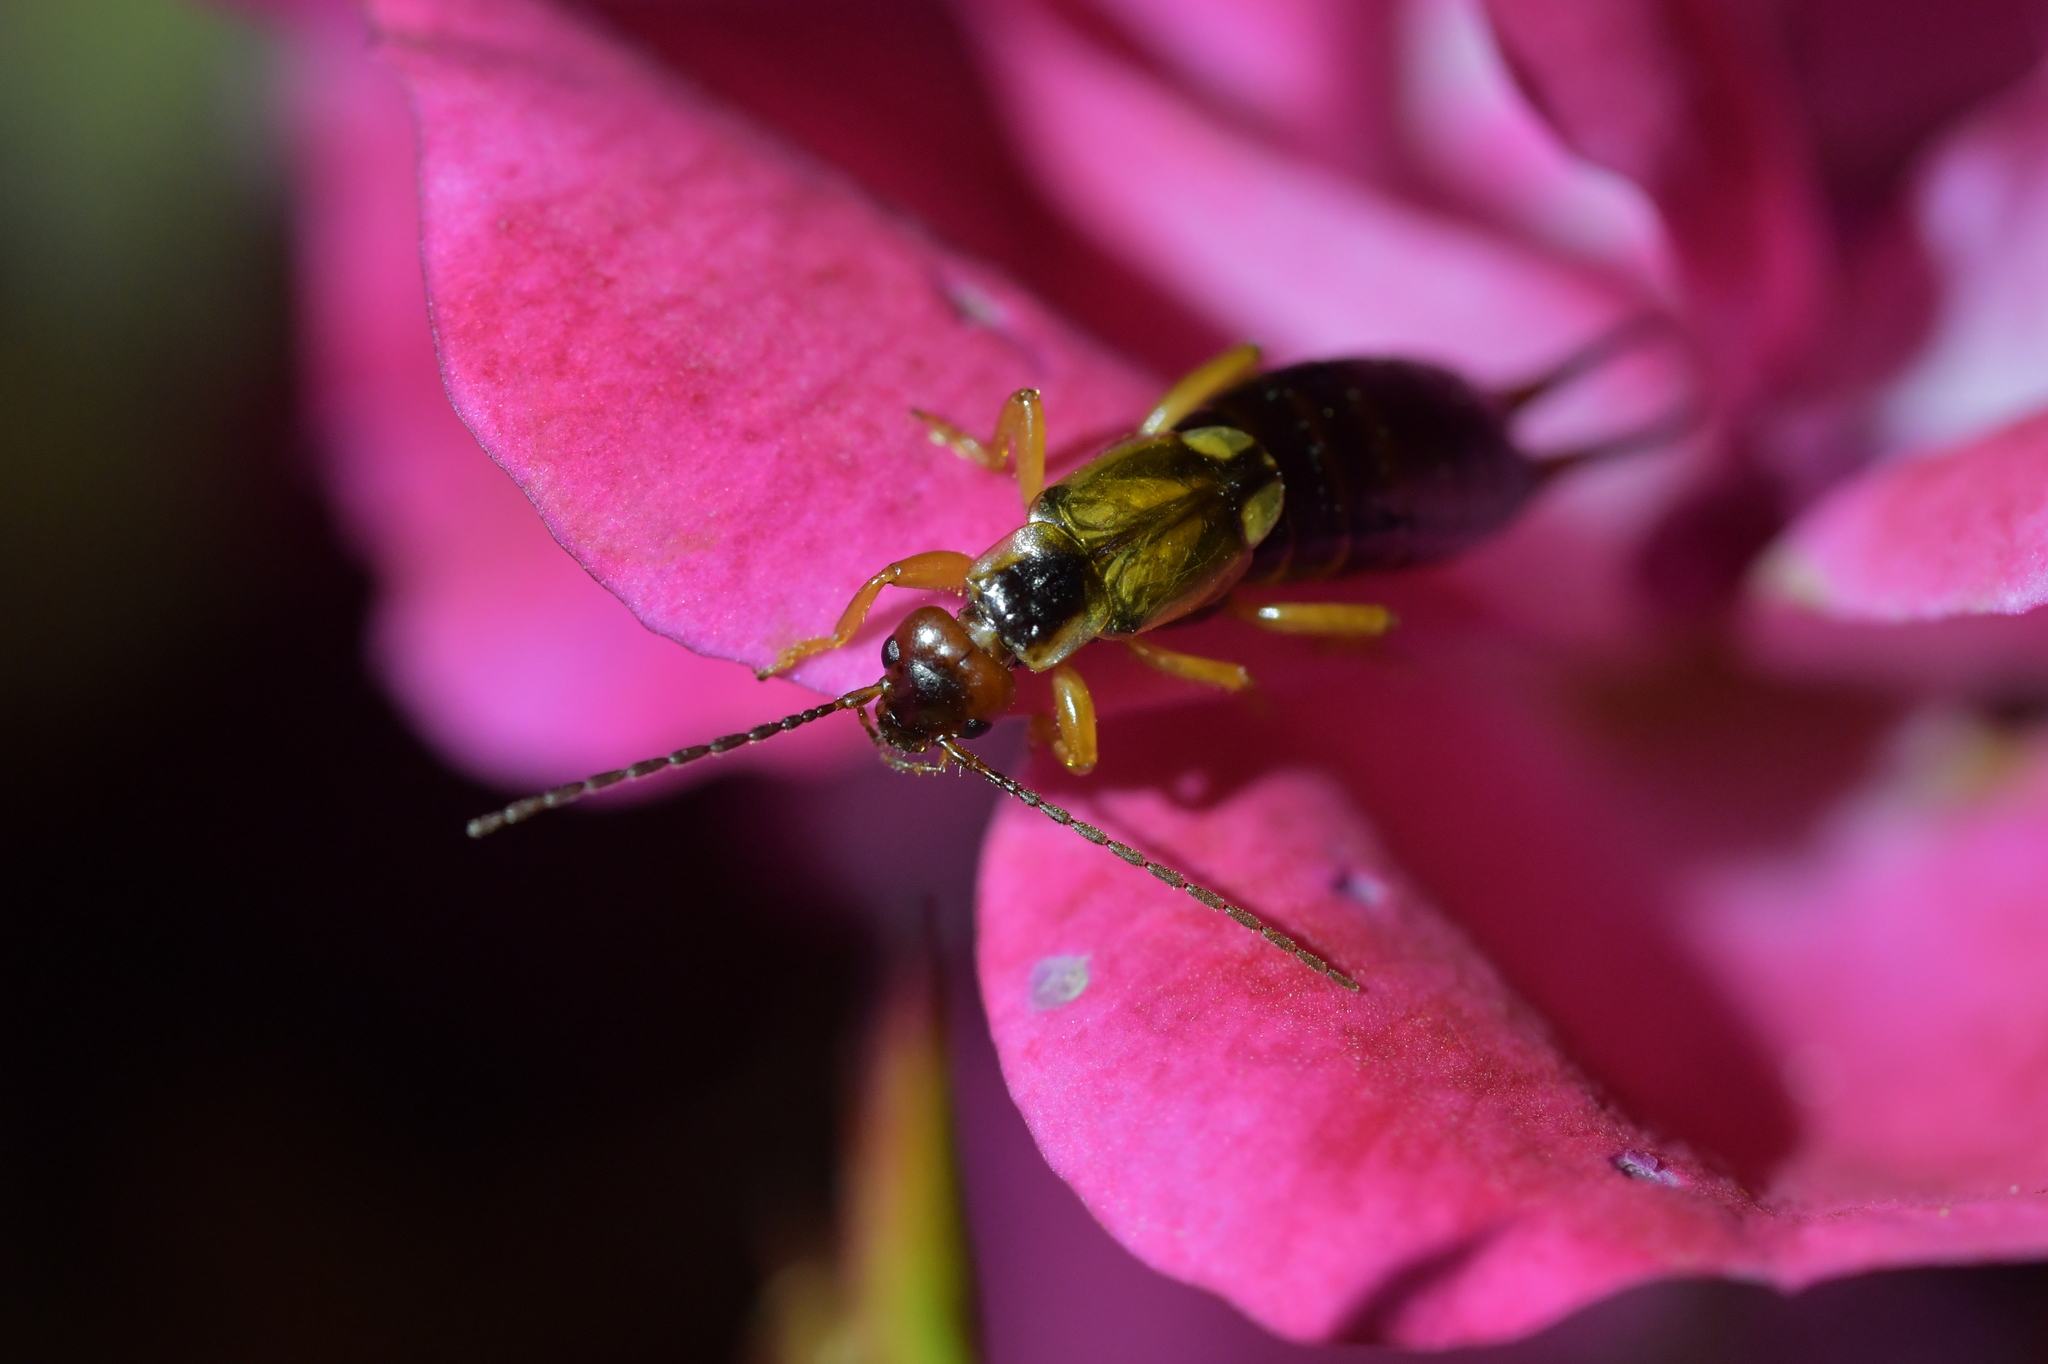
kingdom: Animalia
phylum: Arthropoda
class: Insecta
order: Dermaptera
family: Forficulidae
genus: Forficula
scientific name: Forficula
